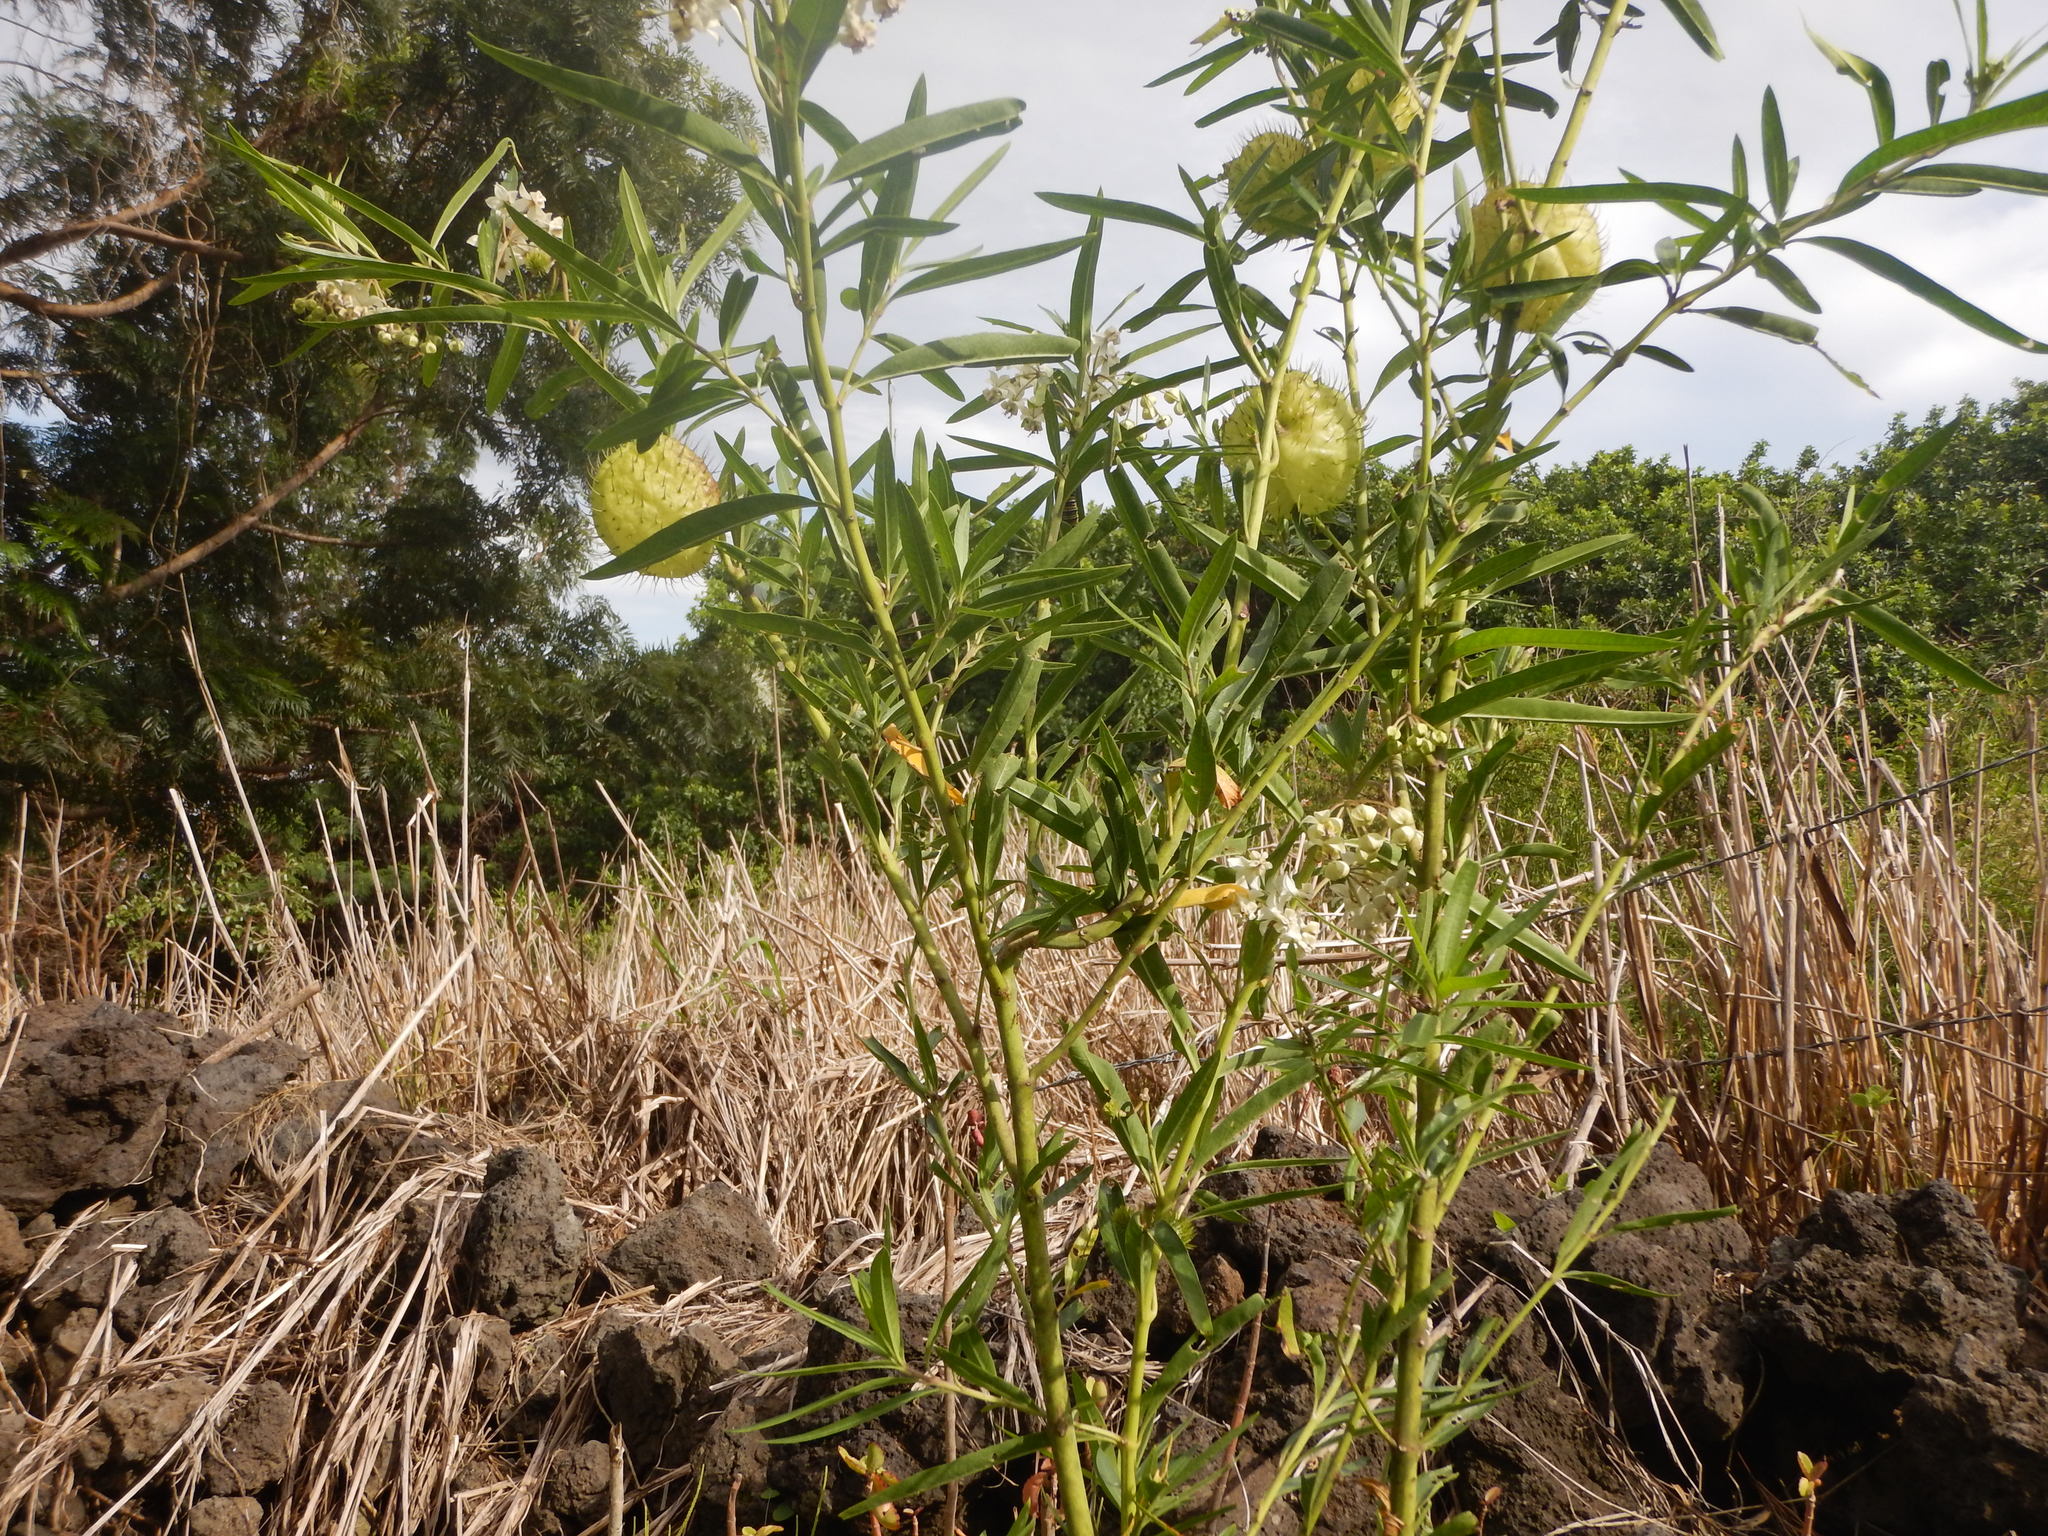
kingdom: Plantae
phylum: Tracheophyta
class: Magnoliopsida
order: Gentianales
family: Apocynaceae
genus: Gomphocarpus
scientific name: Gomphocarpus physocarpus
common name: Balloon cotton bush
